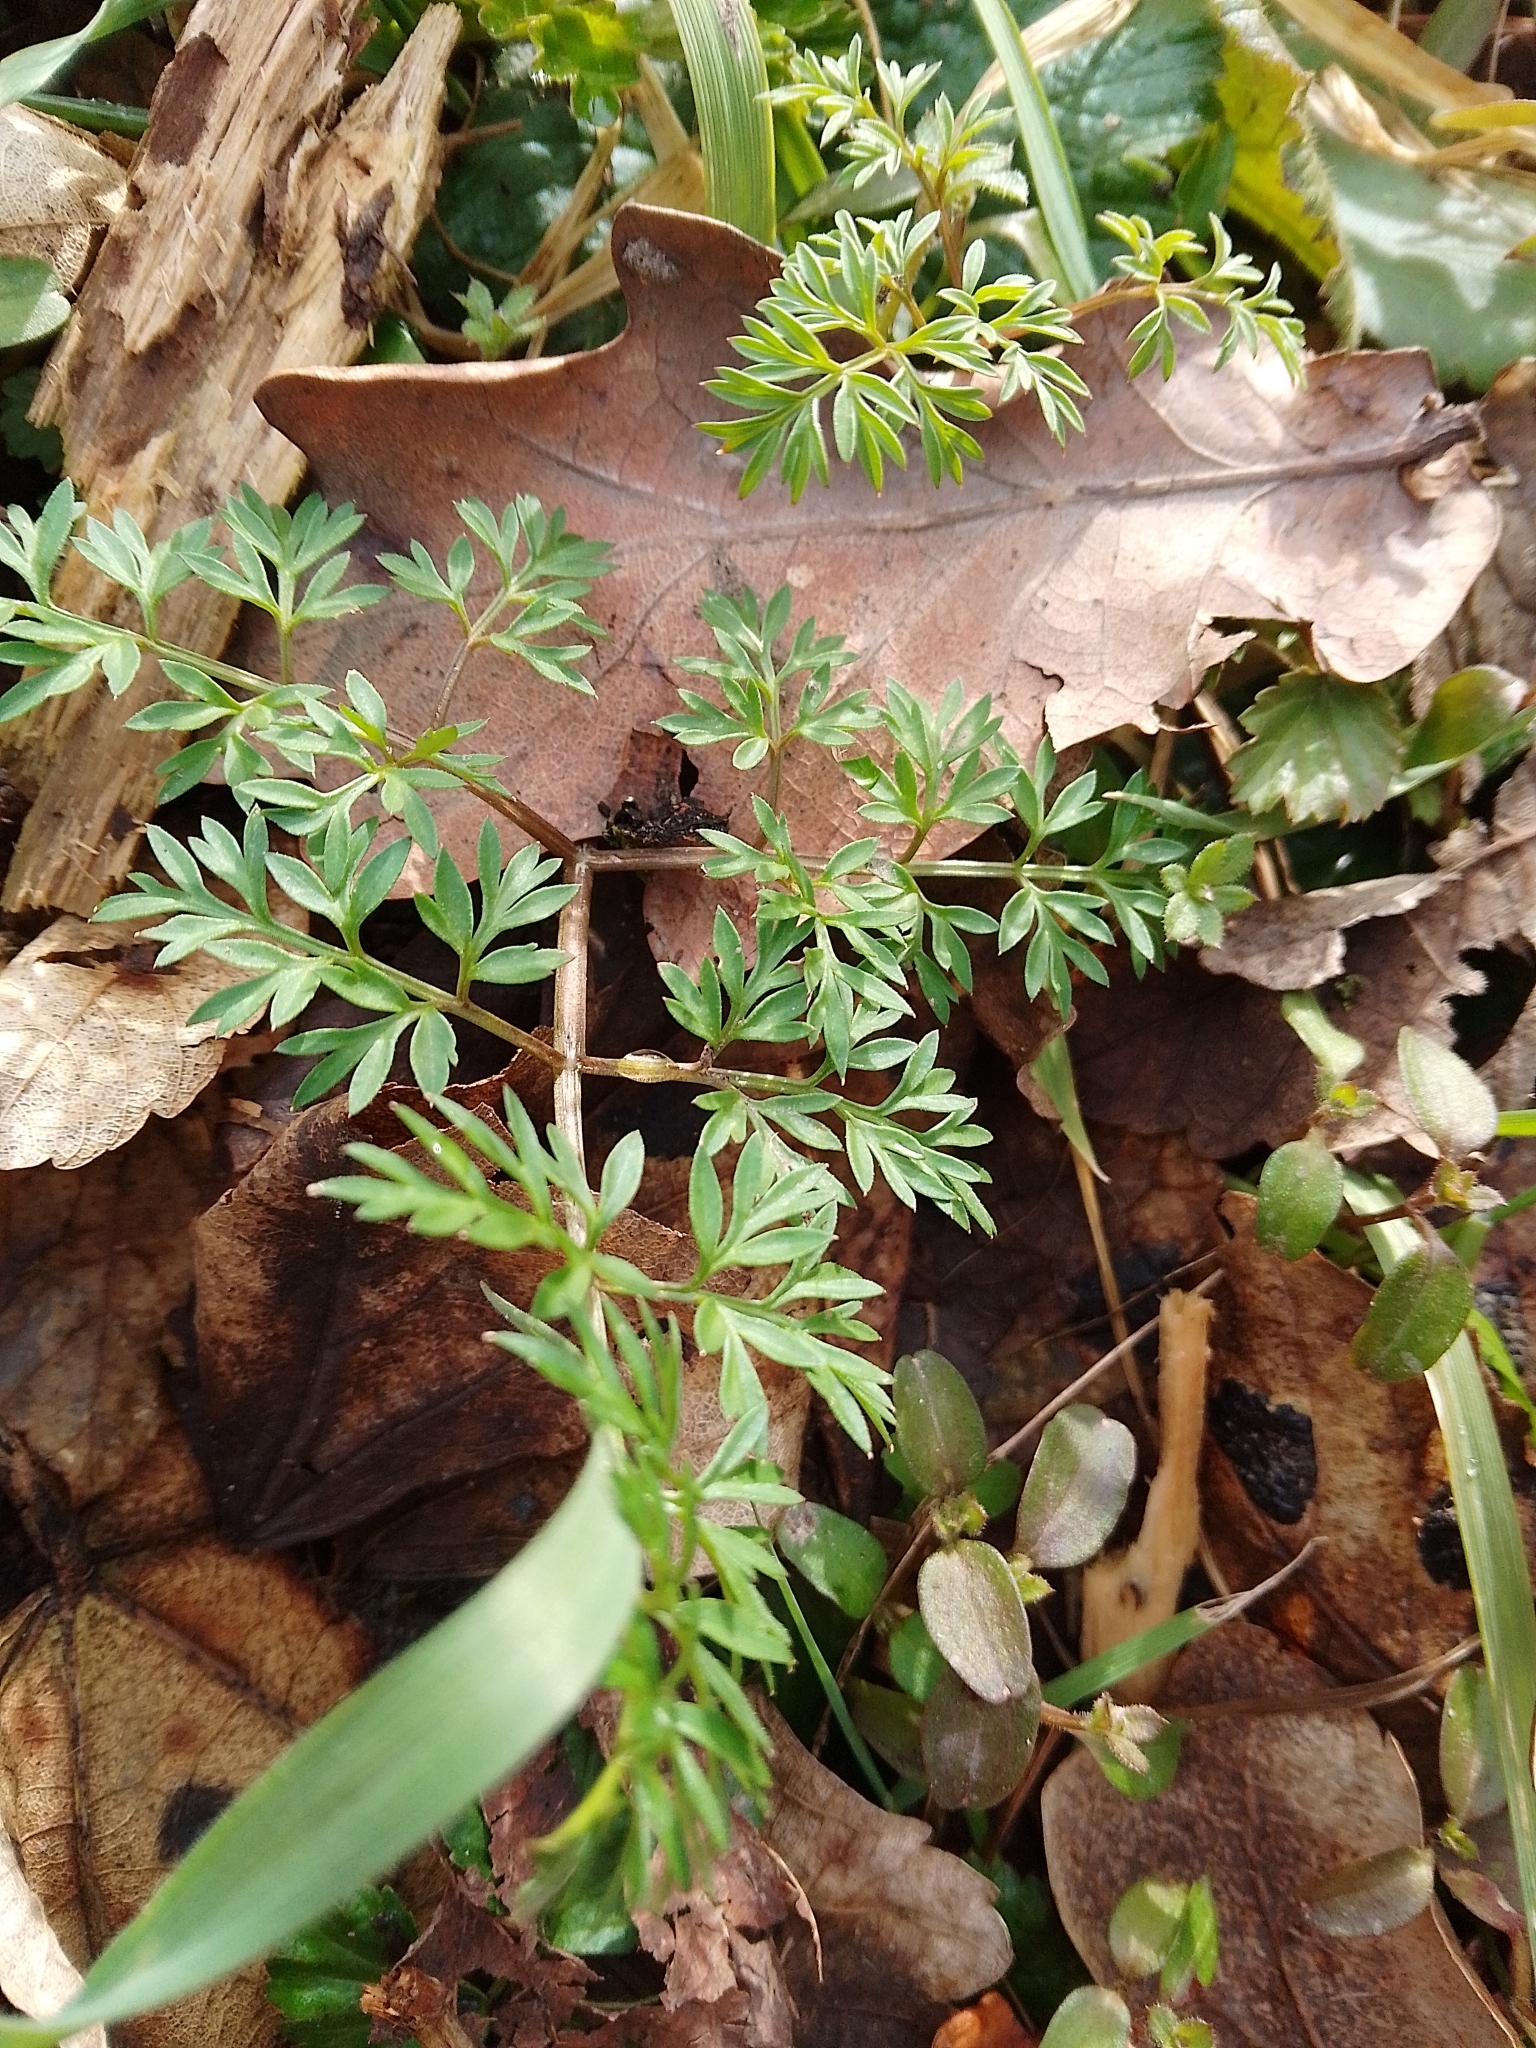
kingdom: Plantae
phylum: Tracheophyta
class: Magnoliopsida
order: Apiales
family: Apiaceae
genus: Conopodium
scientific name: Conopodium majus
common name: Pignut
